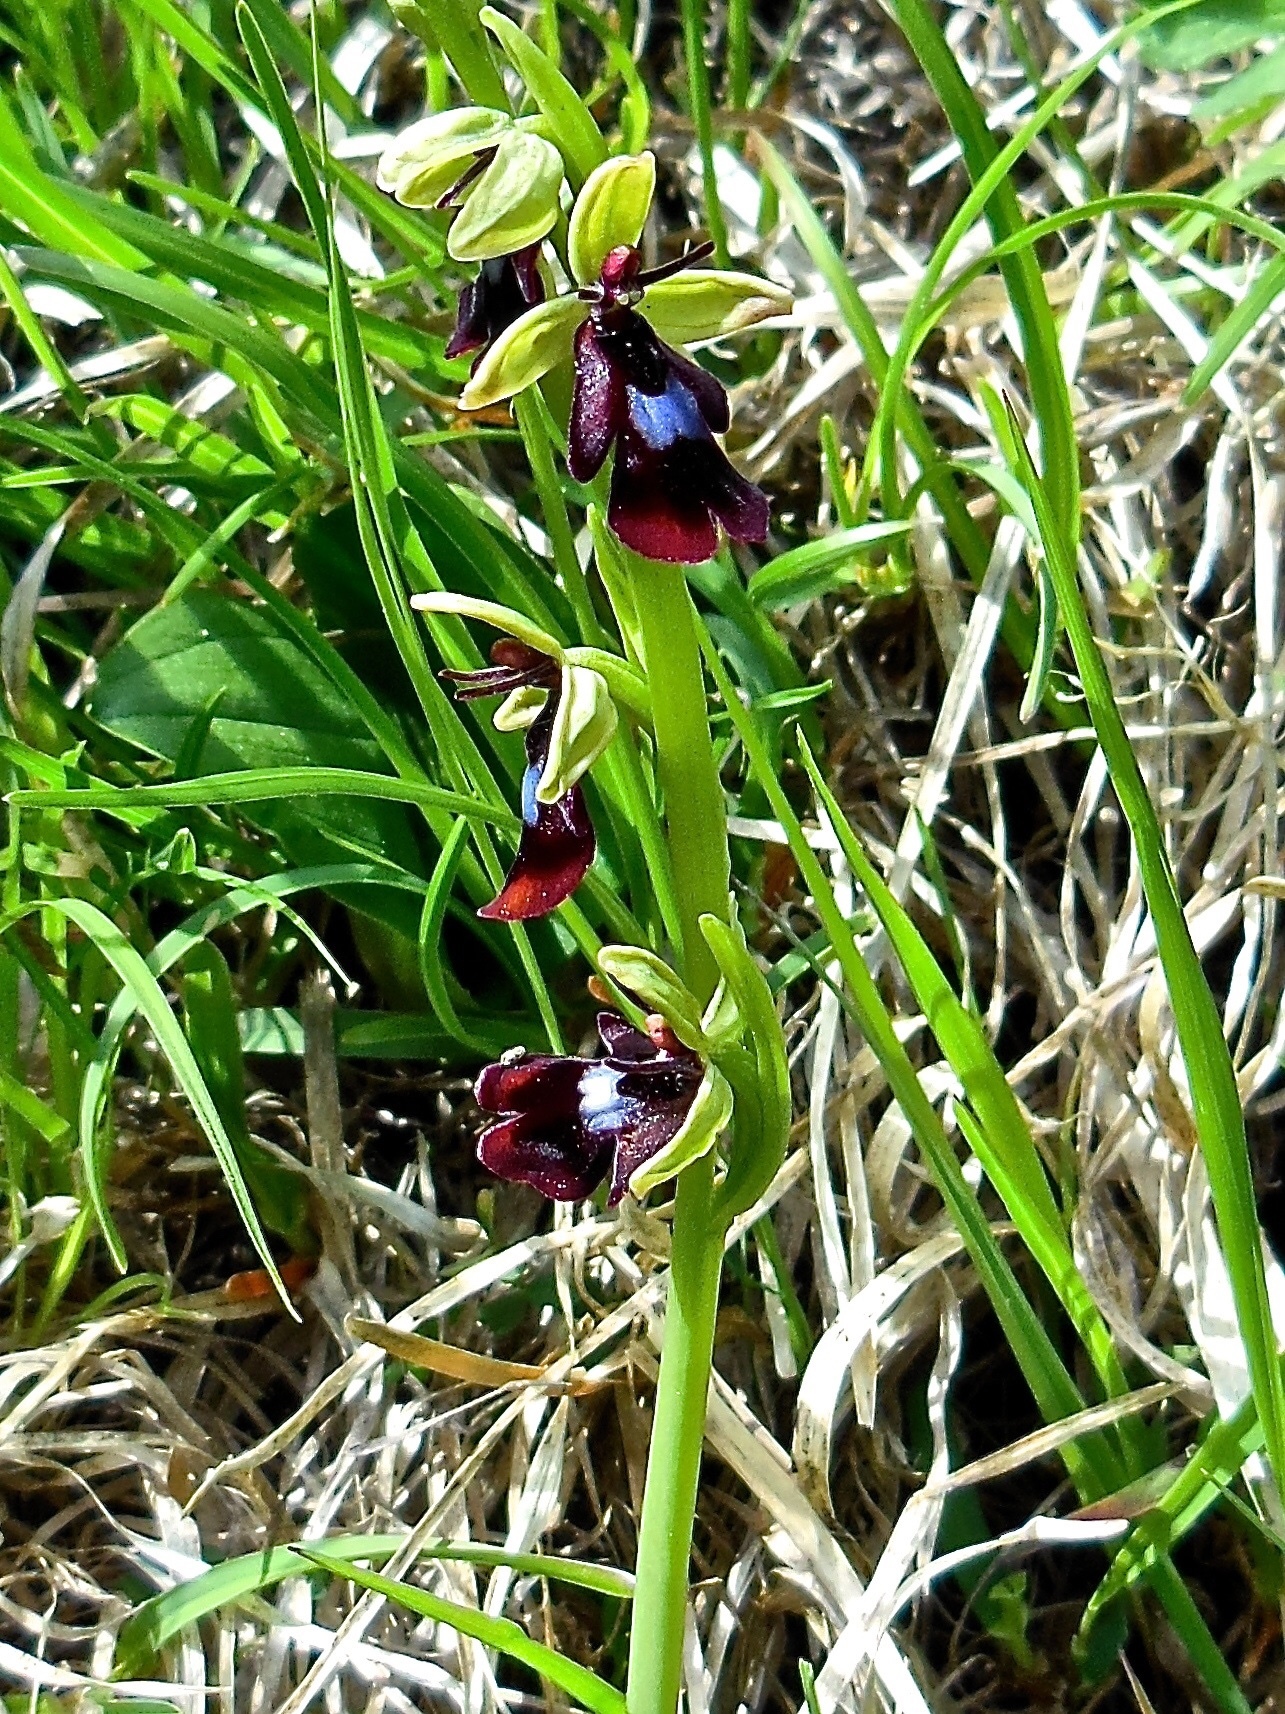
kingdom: Plantae
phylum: Tracheophyta
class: Liliopsida
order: Asparagales
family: Orchidaceae
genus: Ophrys
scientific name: Ophrys insectifera
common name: Fly orchid
